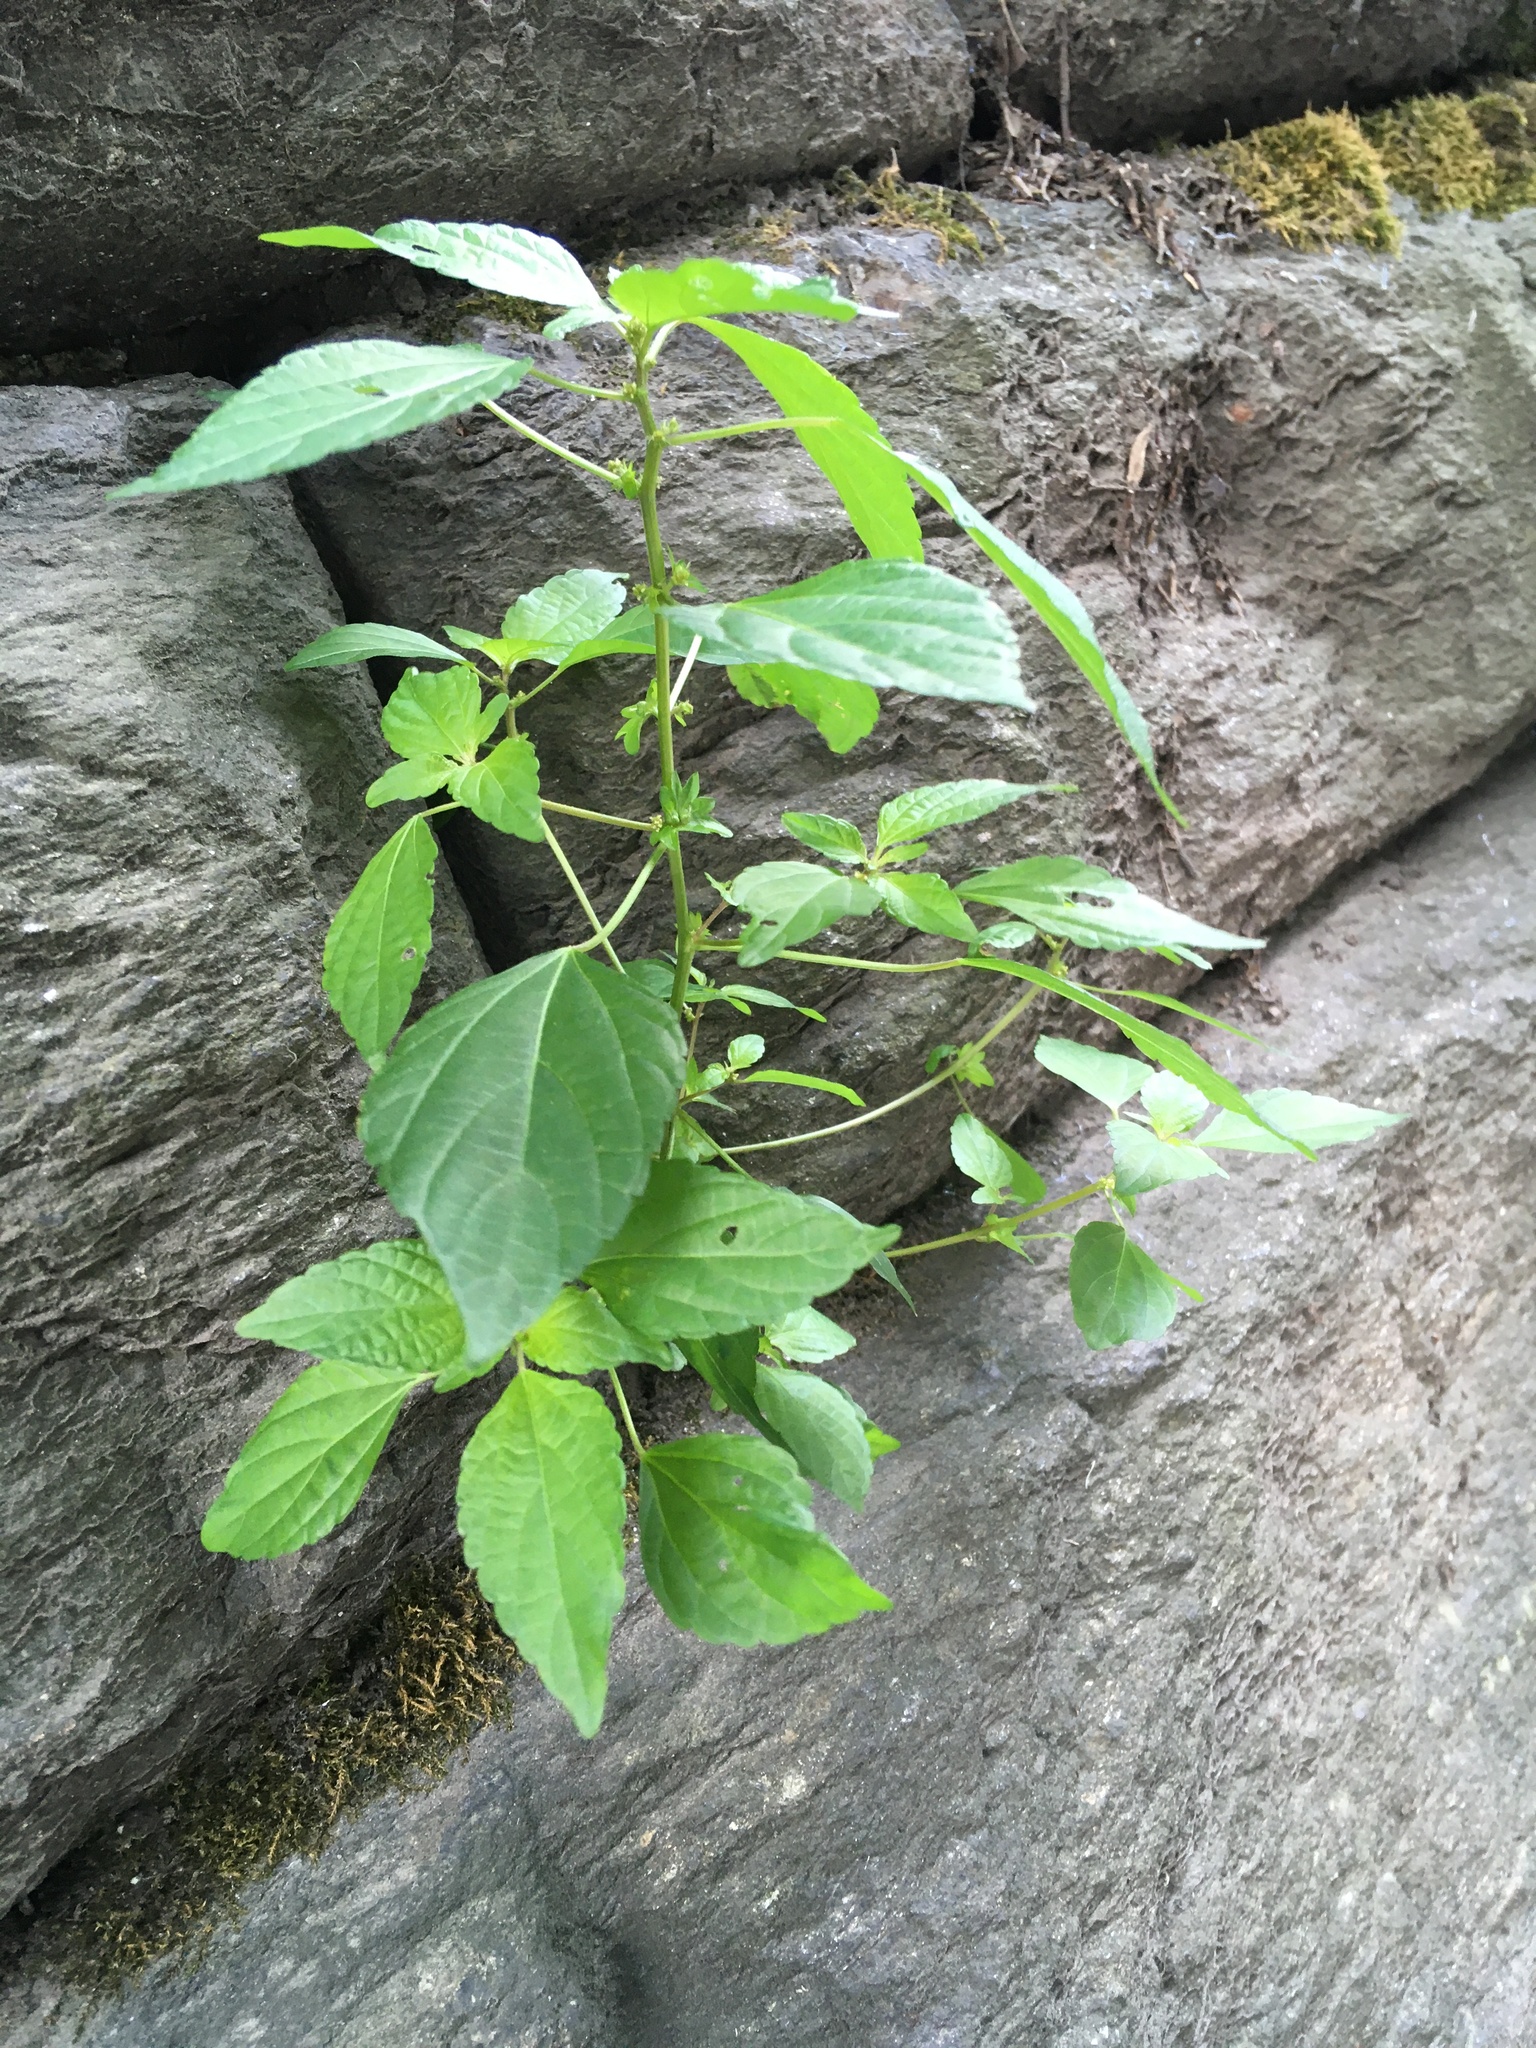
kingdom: Plantae
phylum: Tracheophyta
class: Magnoliopsida
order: Malpighiales
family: Euphorbiaceae
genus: Acalypha
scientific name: Acalypha rhomboidea
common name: Rhombic copperleaf
